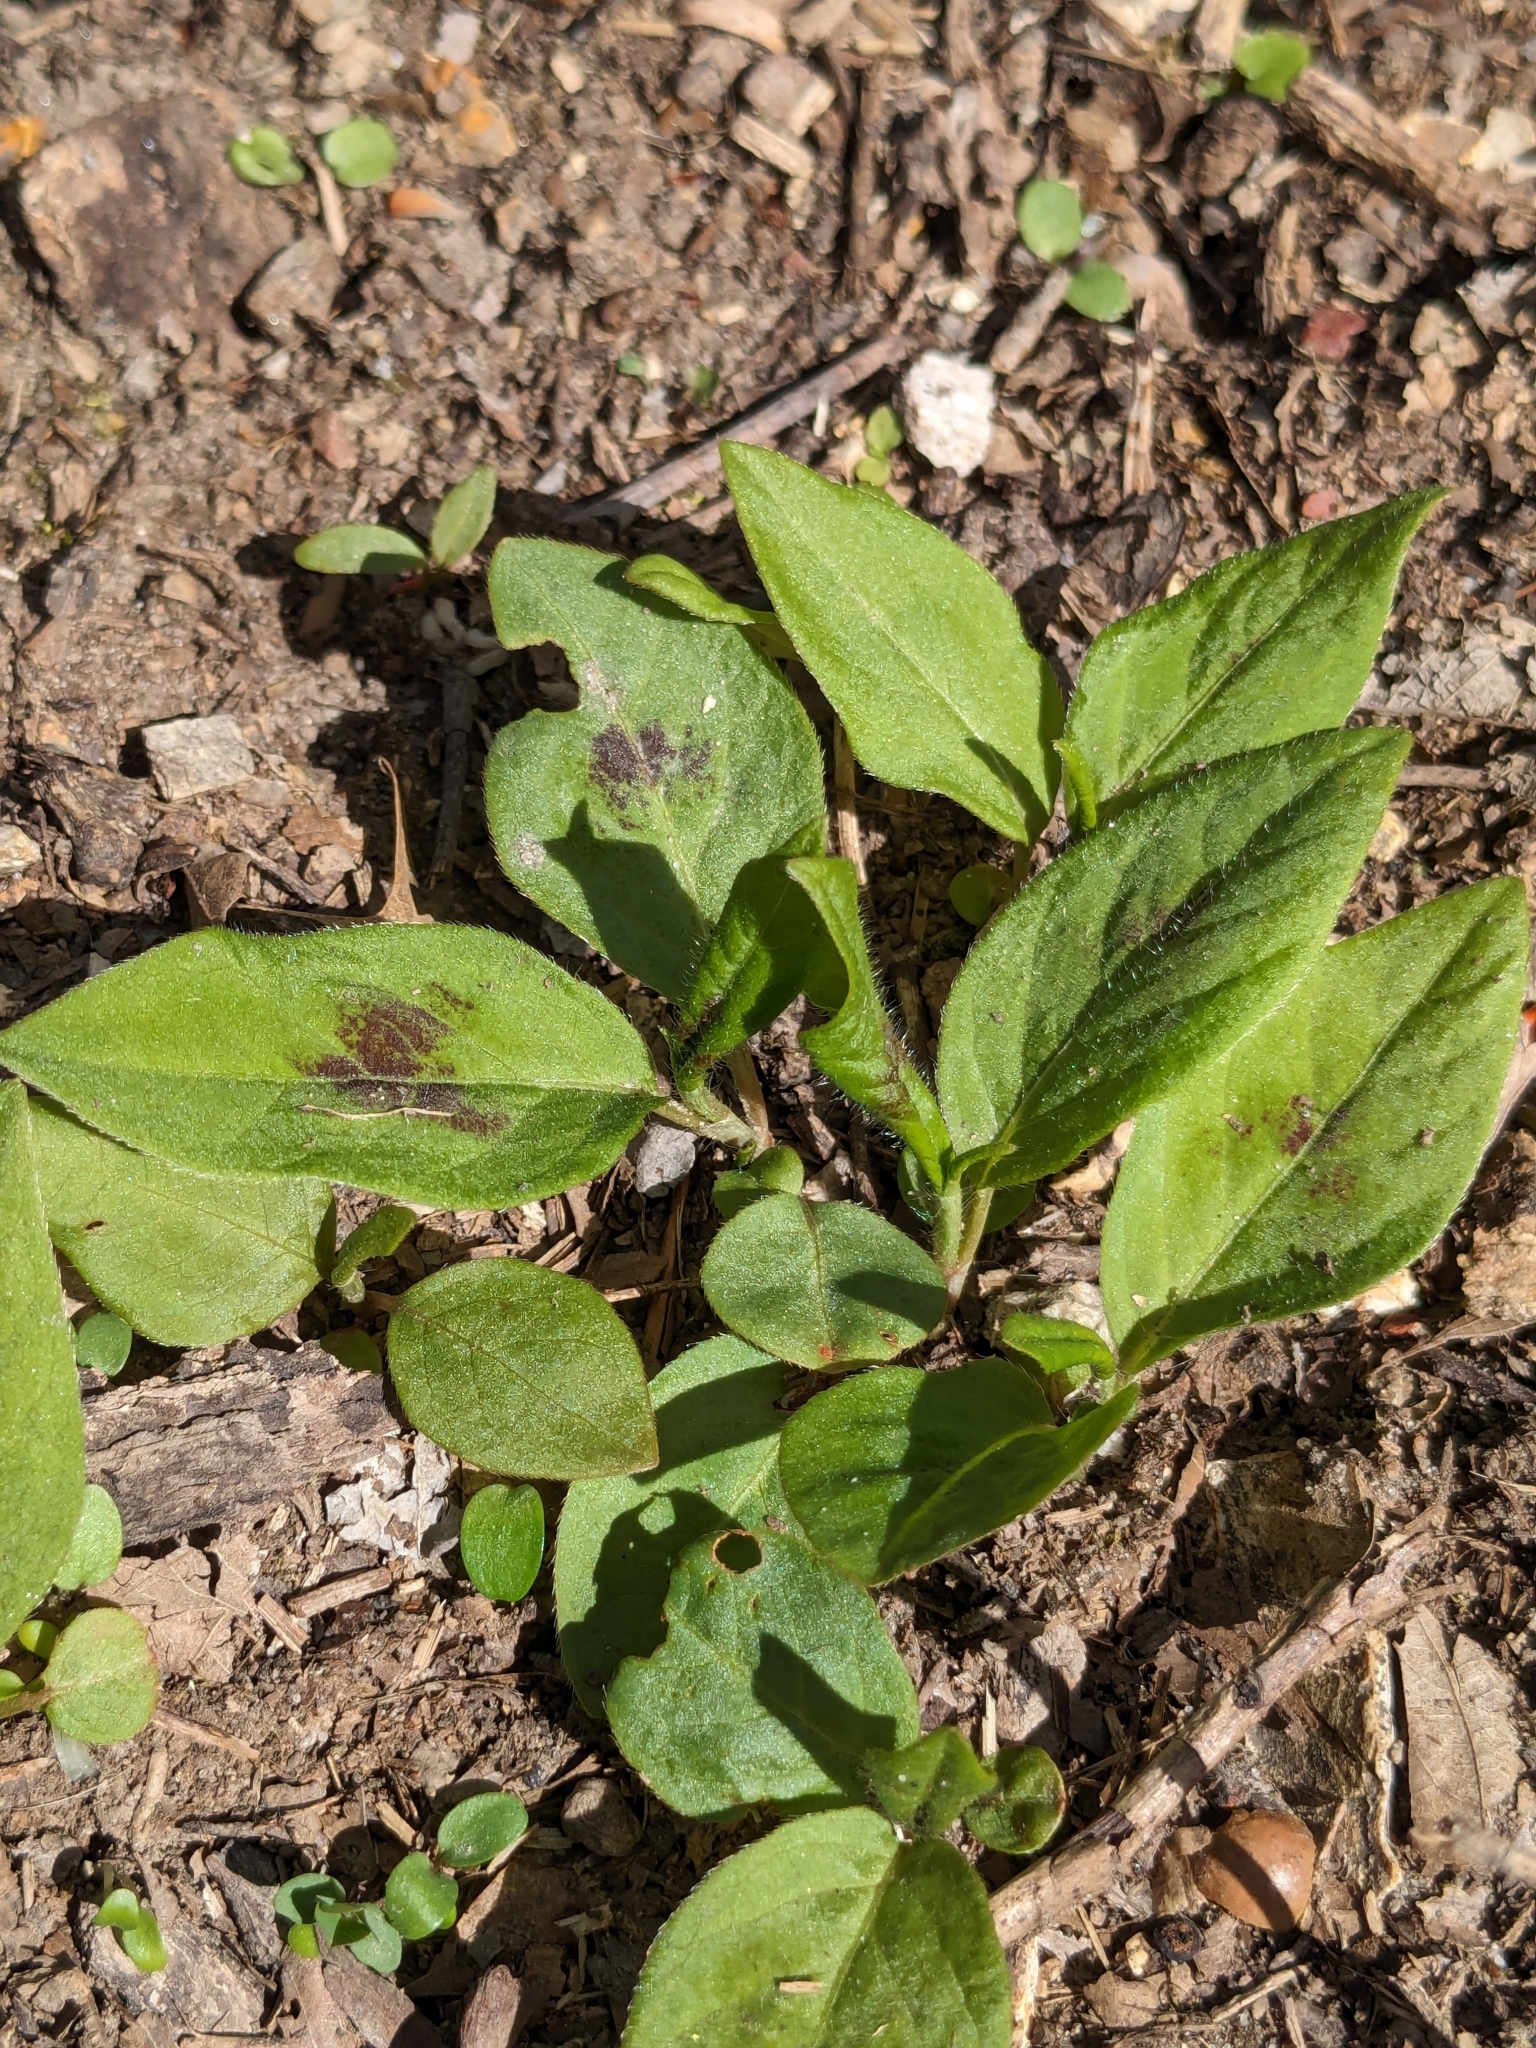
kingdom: Plantae
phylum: Tracheophyta
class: Magnoliopsida
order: Caryophyllales
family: Polygonaceae
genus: Persicaria
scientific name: Persicaria virginiana
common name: Jumpseed
